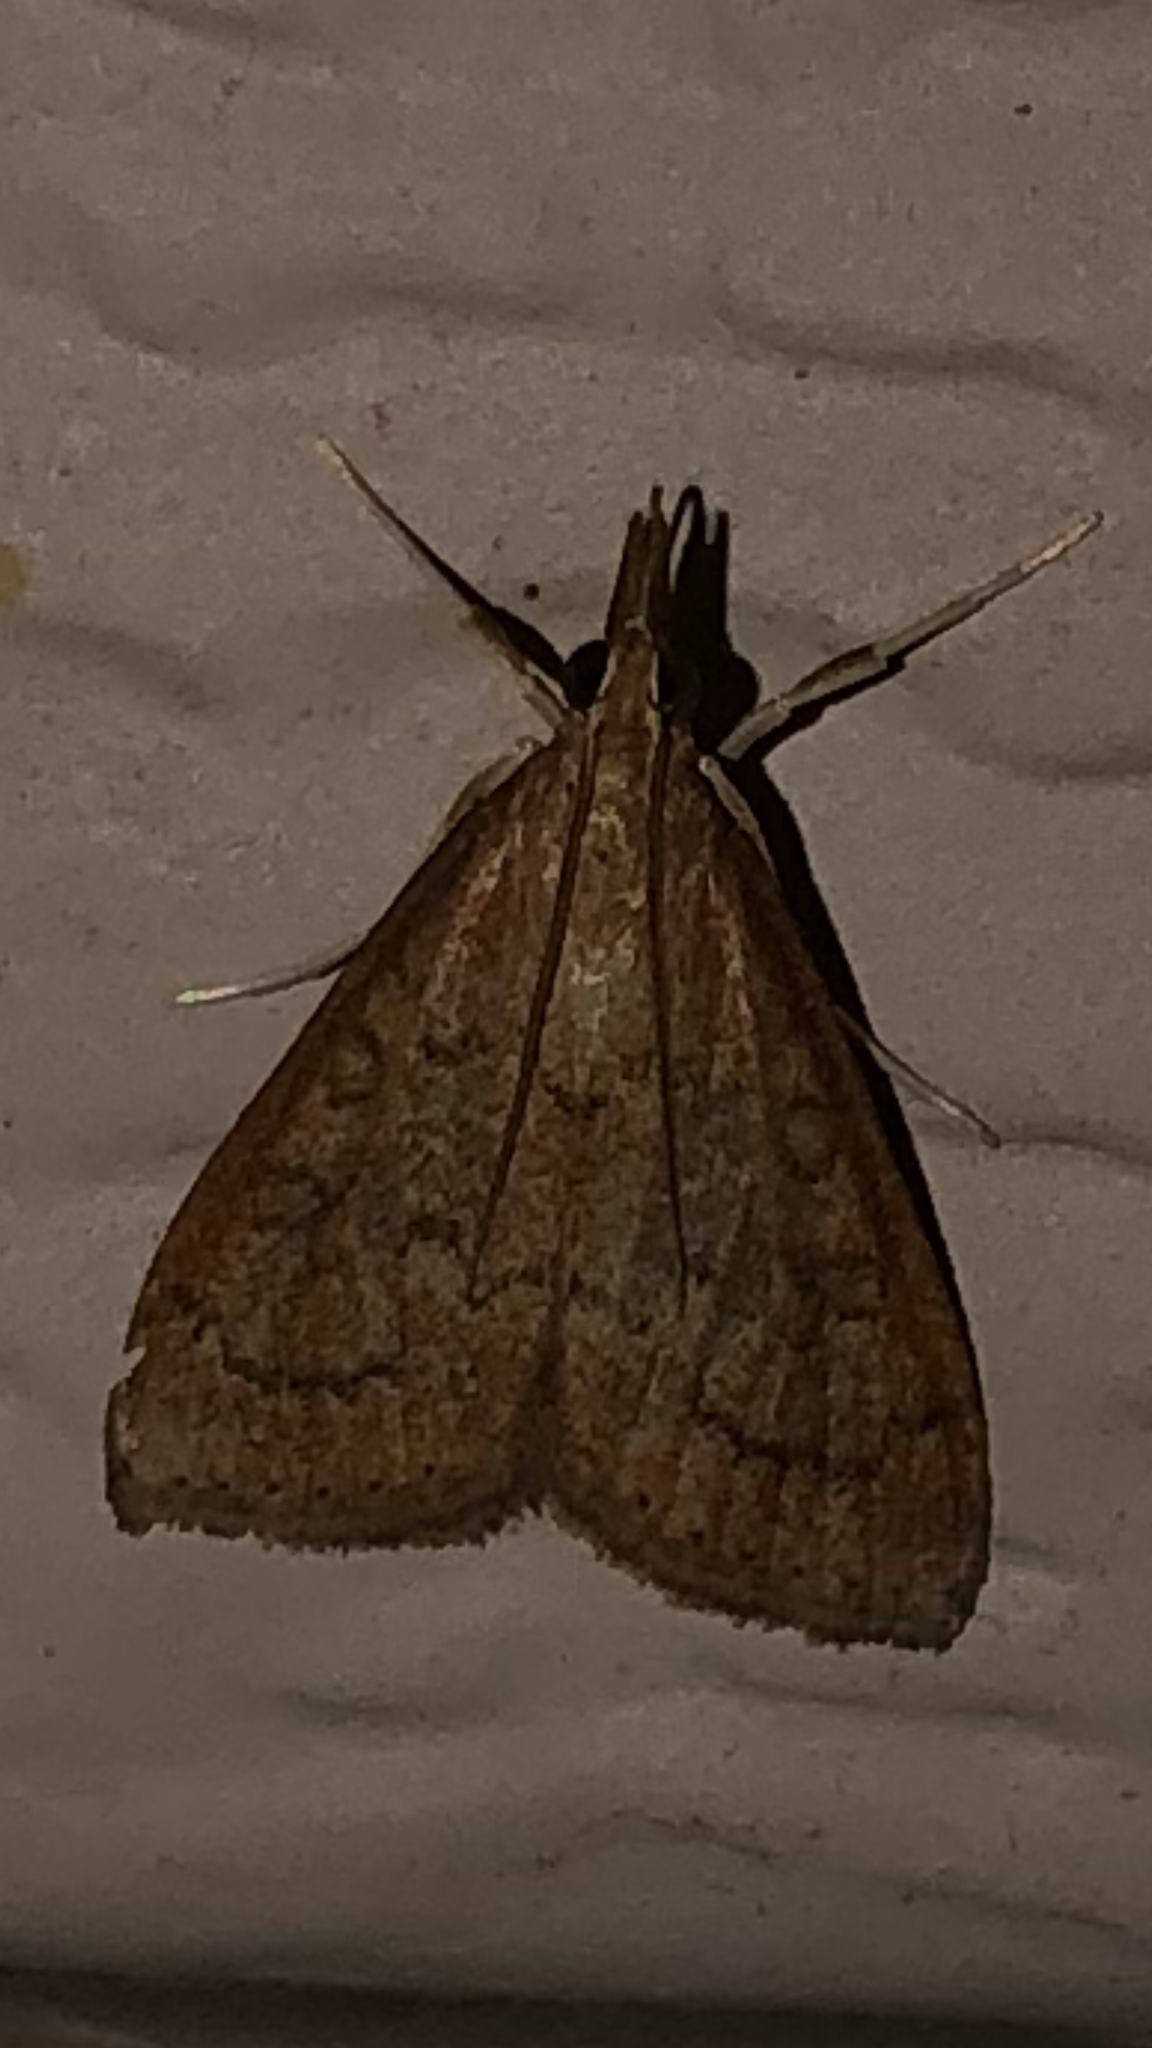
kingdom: Animalia
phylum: Arthropoda
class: Insecta
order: Lepidoptera
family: Crambidae
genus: Udea
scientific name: Udea rubigalis
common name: Celery leaftier moth
